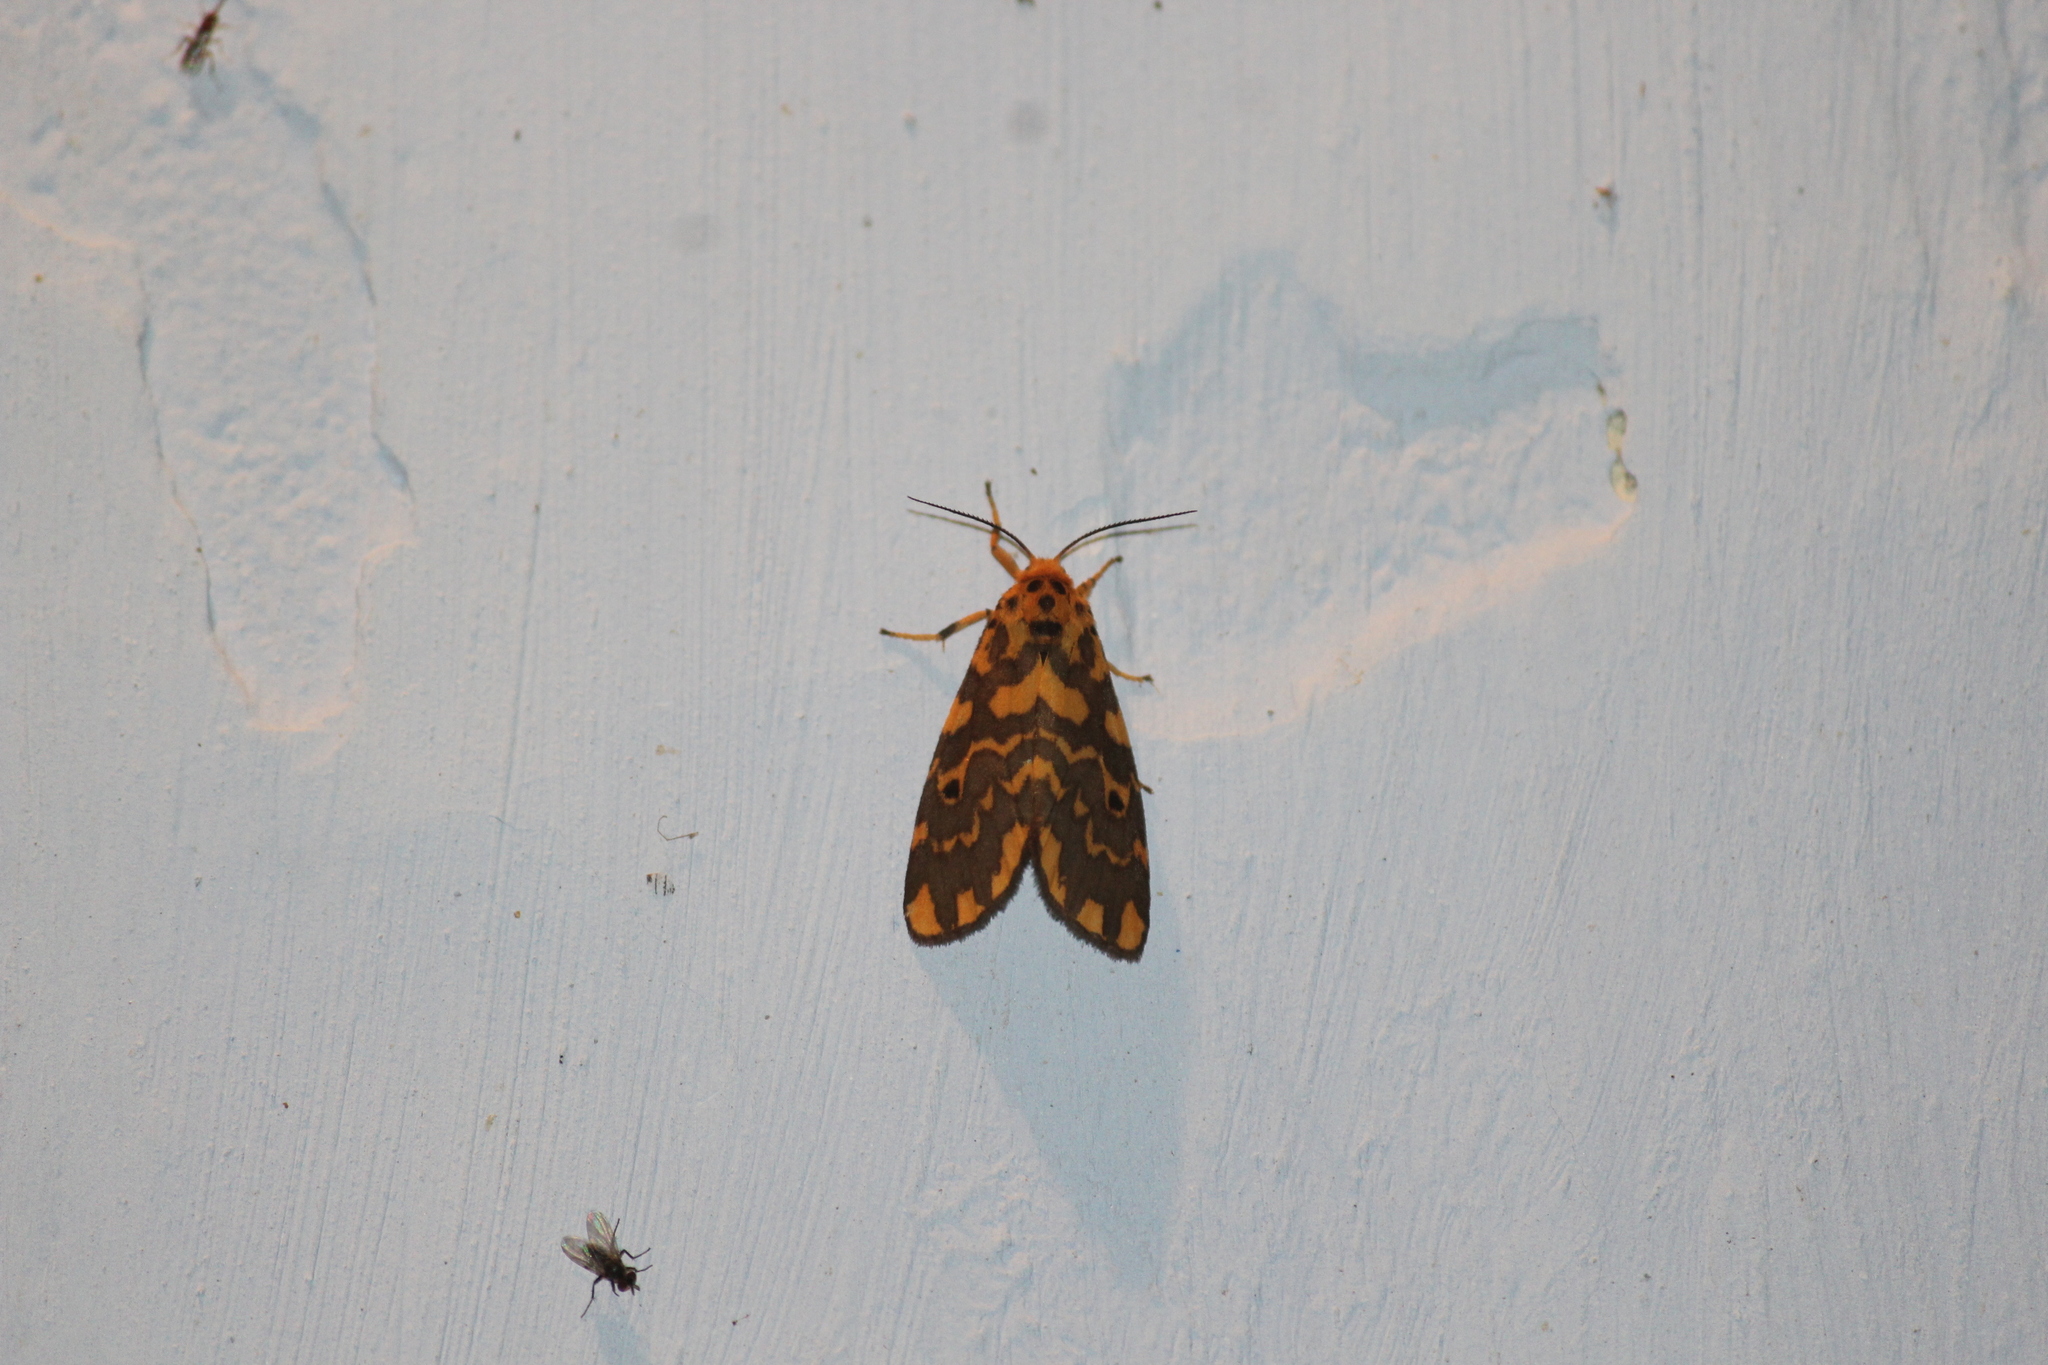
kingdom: Animalia
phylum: Arthropoda
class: Insecta
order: Lepidoptera
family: Erebidae
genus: Nepita
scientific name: Nepita conferta
